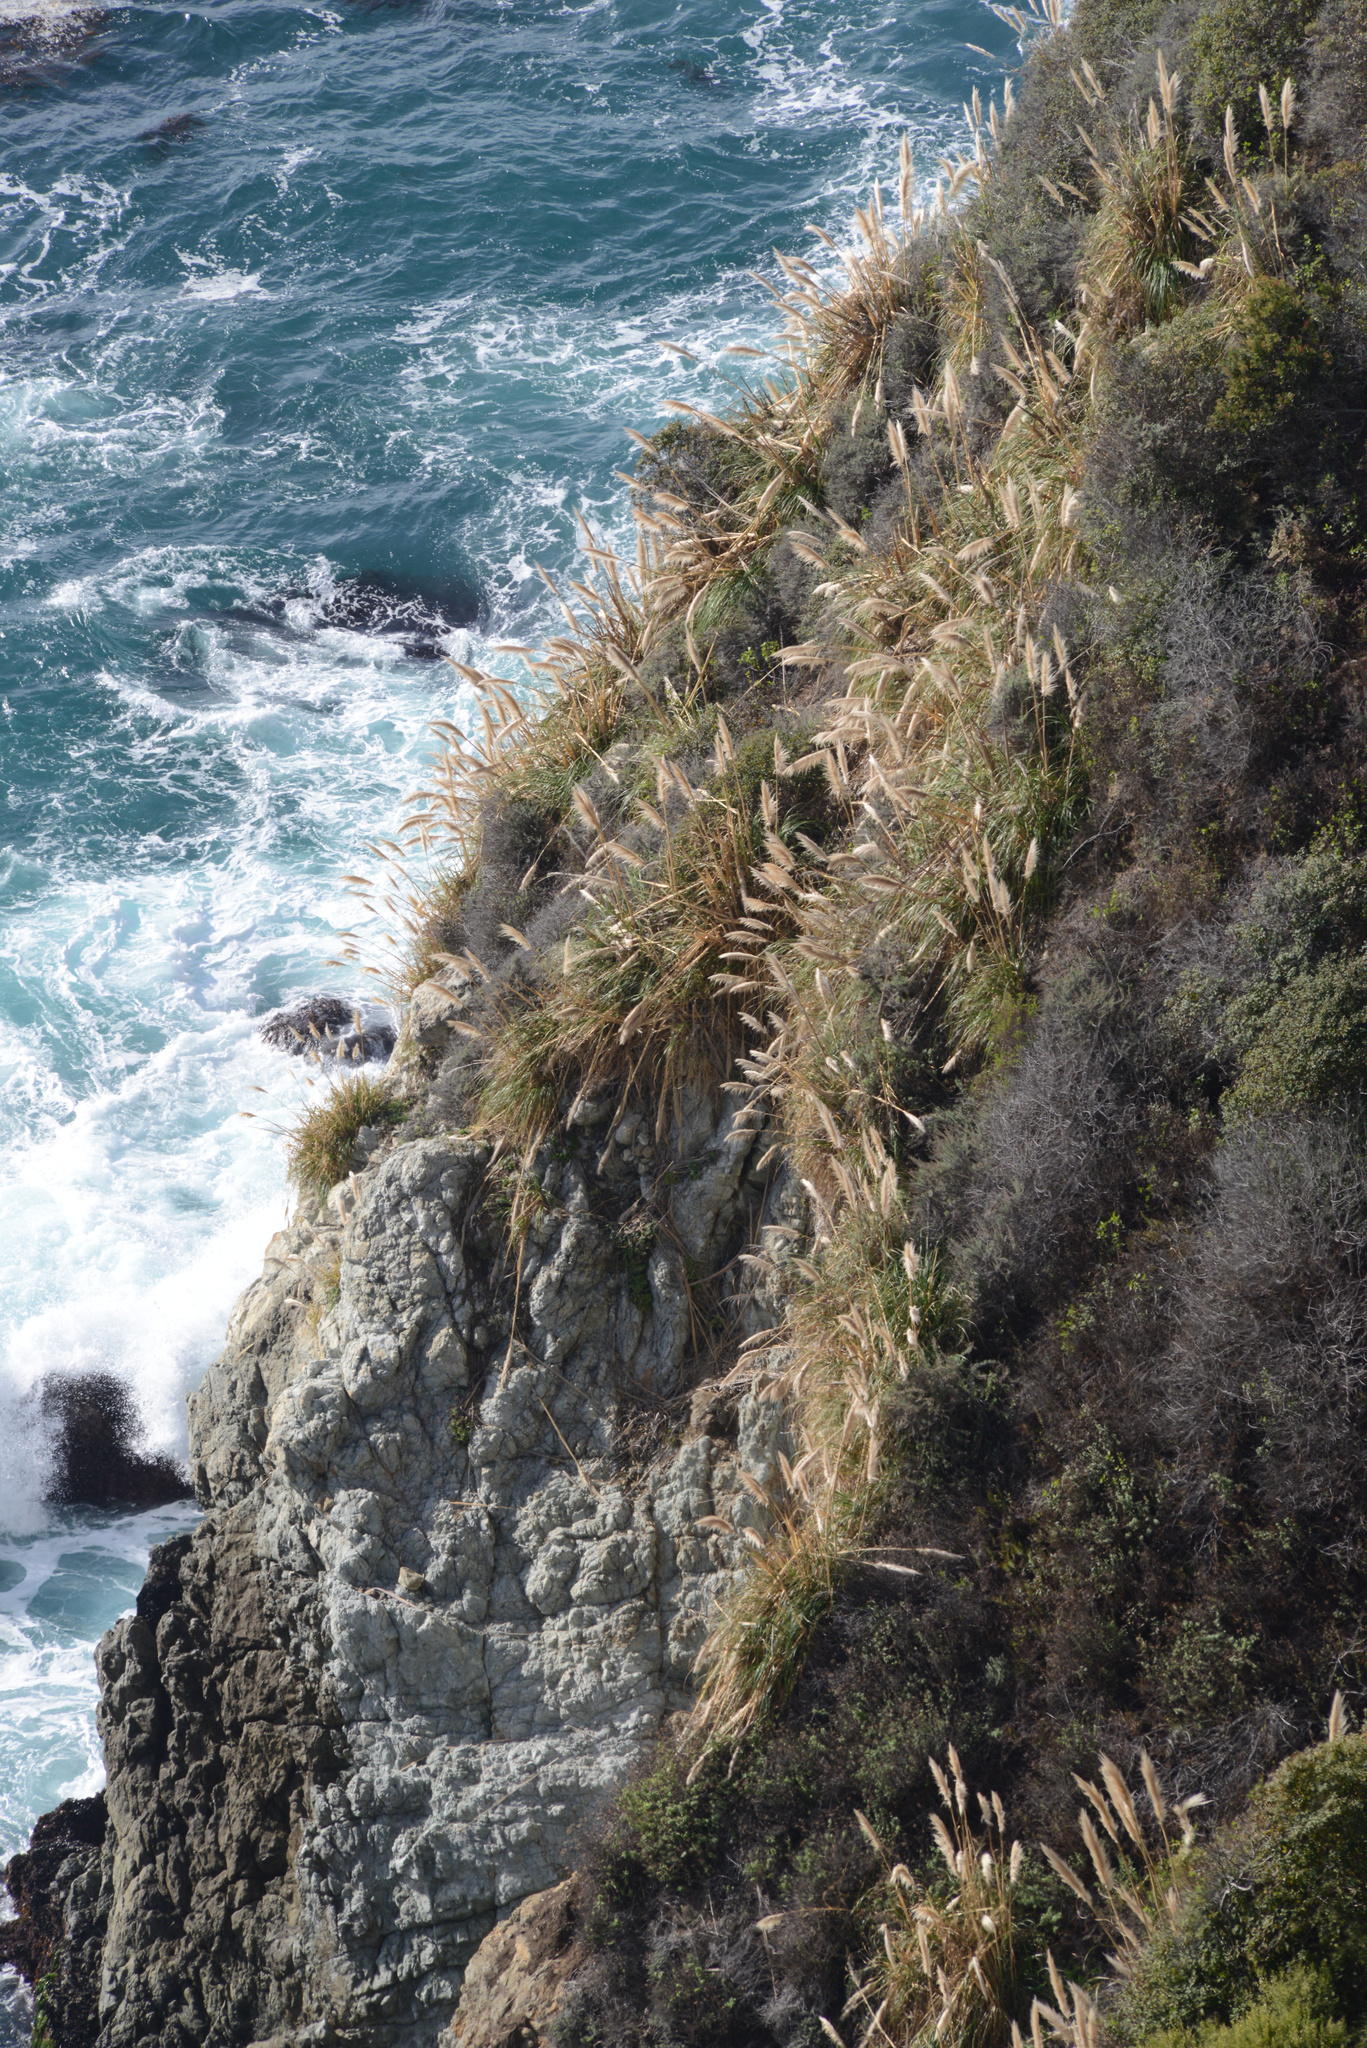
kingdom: Plantae
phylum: Tracheophyta
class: Liliopsida
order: Poales
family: Poaceae
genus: Cortaderia
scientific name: Cortaderia selloana
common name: Uruguayan pampas grass
